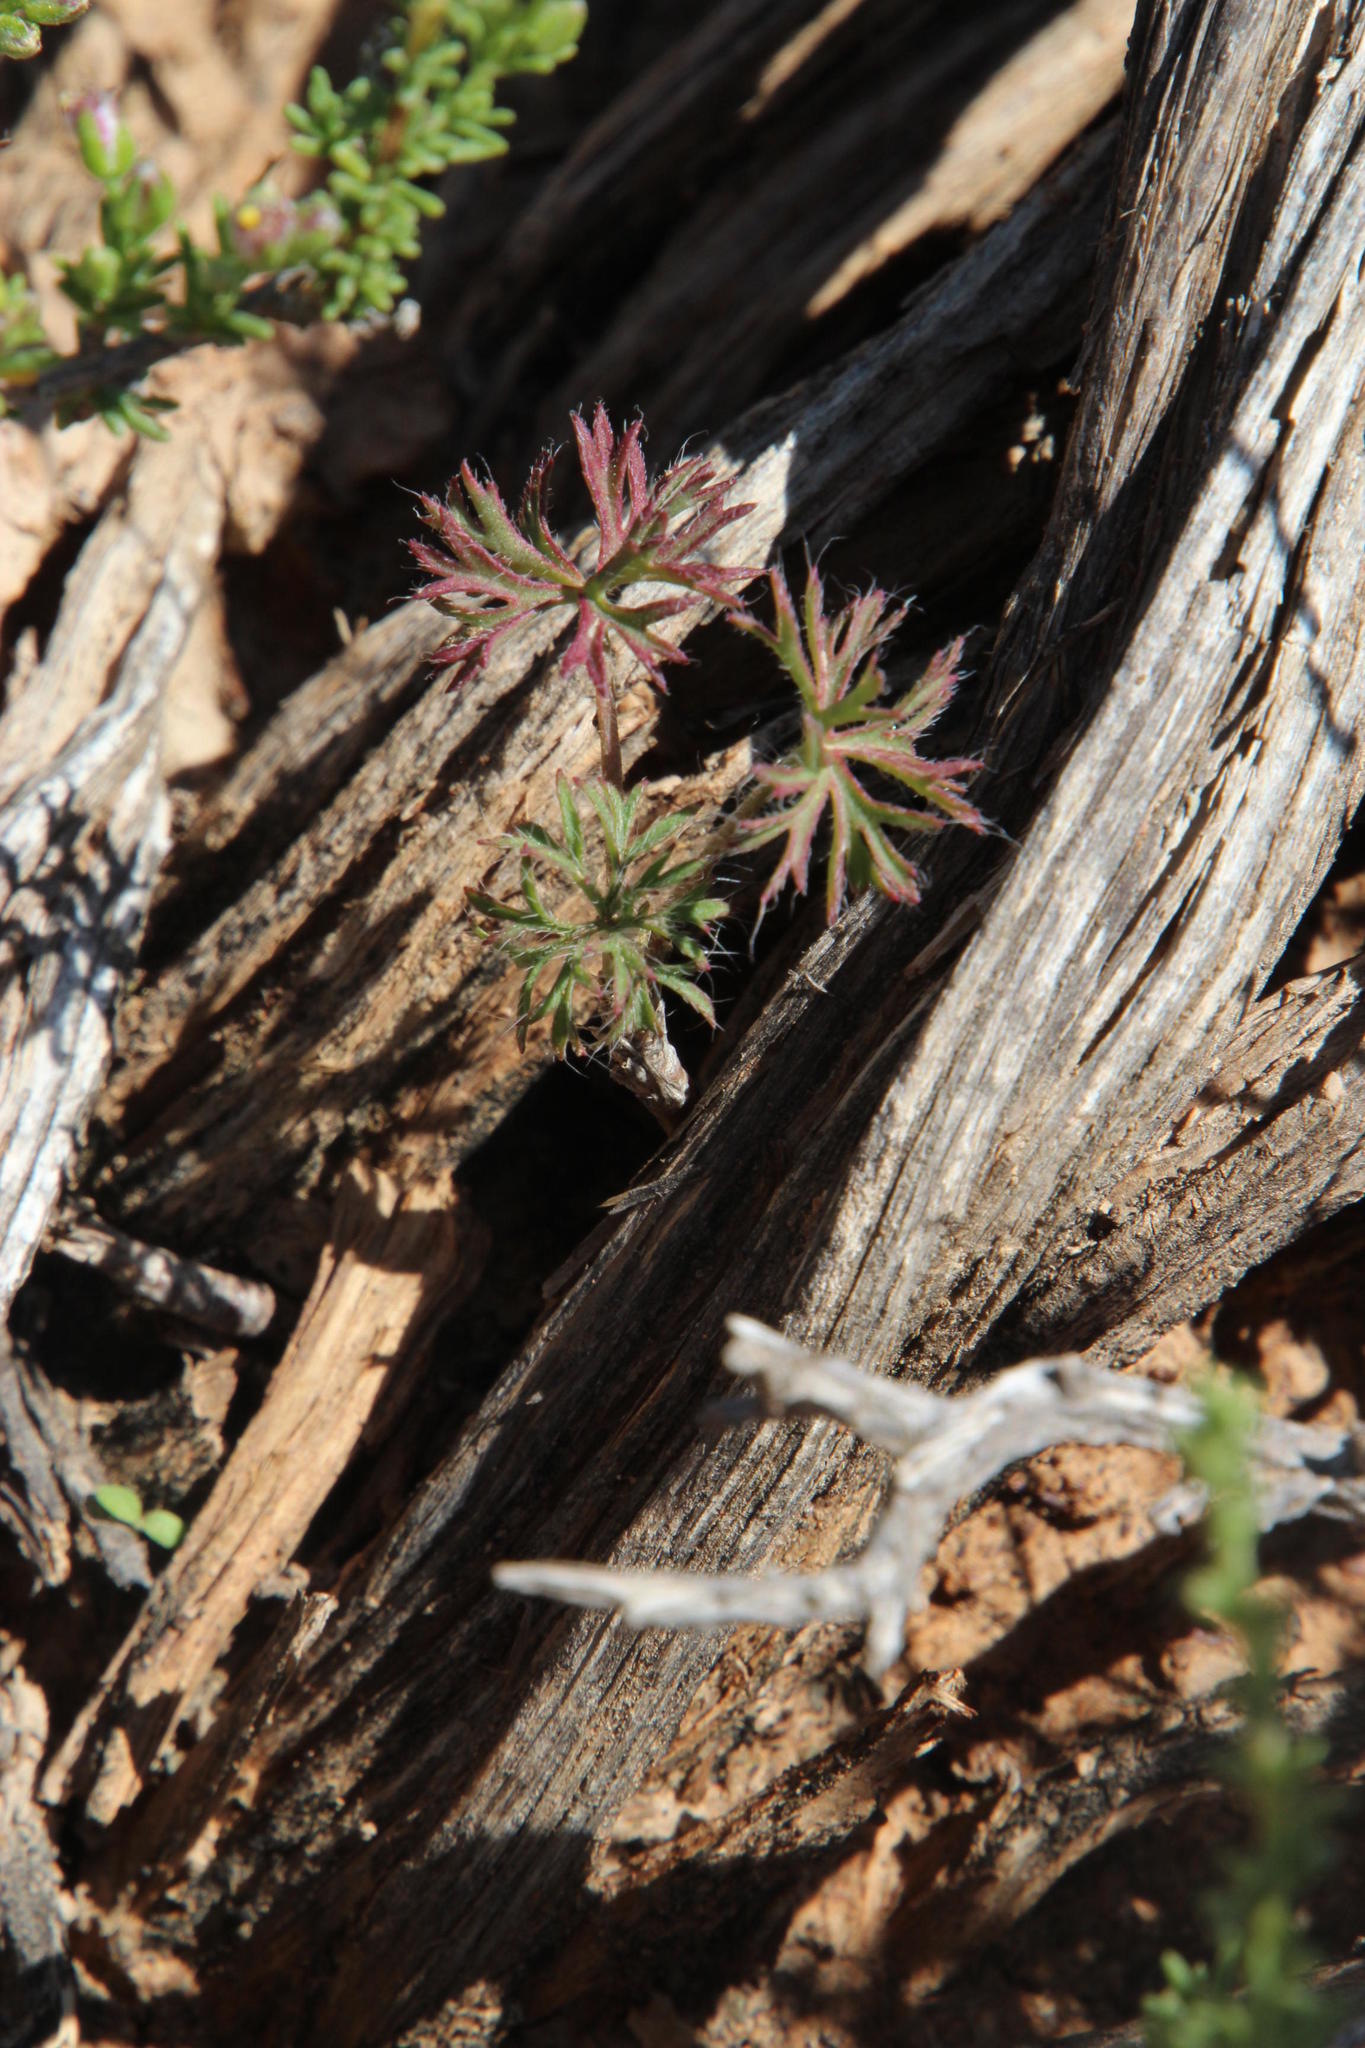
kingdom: Plantae
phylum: Tracheophyta
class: Magnoliopsida
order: Geraniales
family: Geraniaceae
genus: Pelargonium
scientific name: Pelargonium aridum
